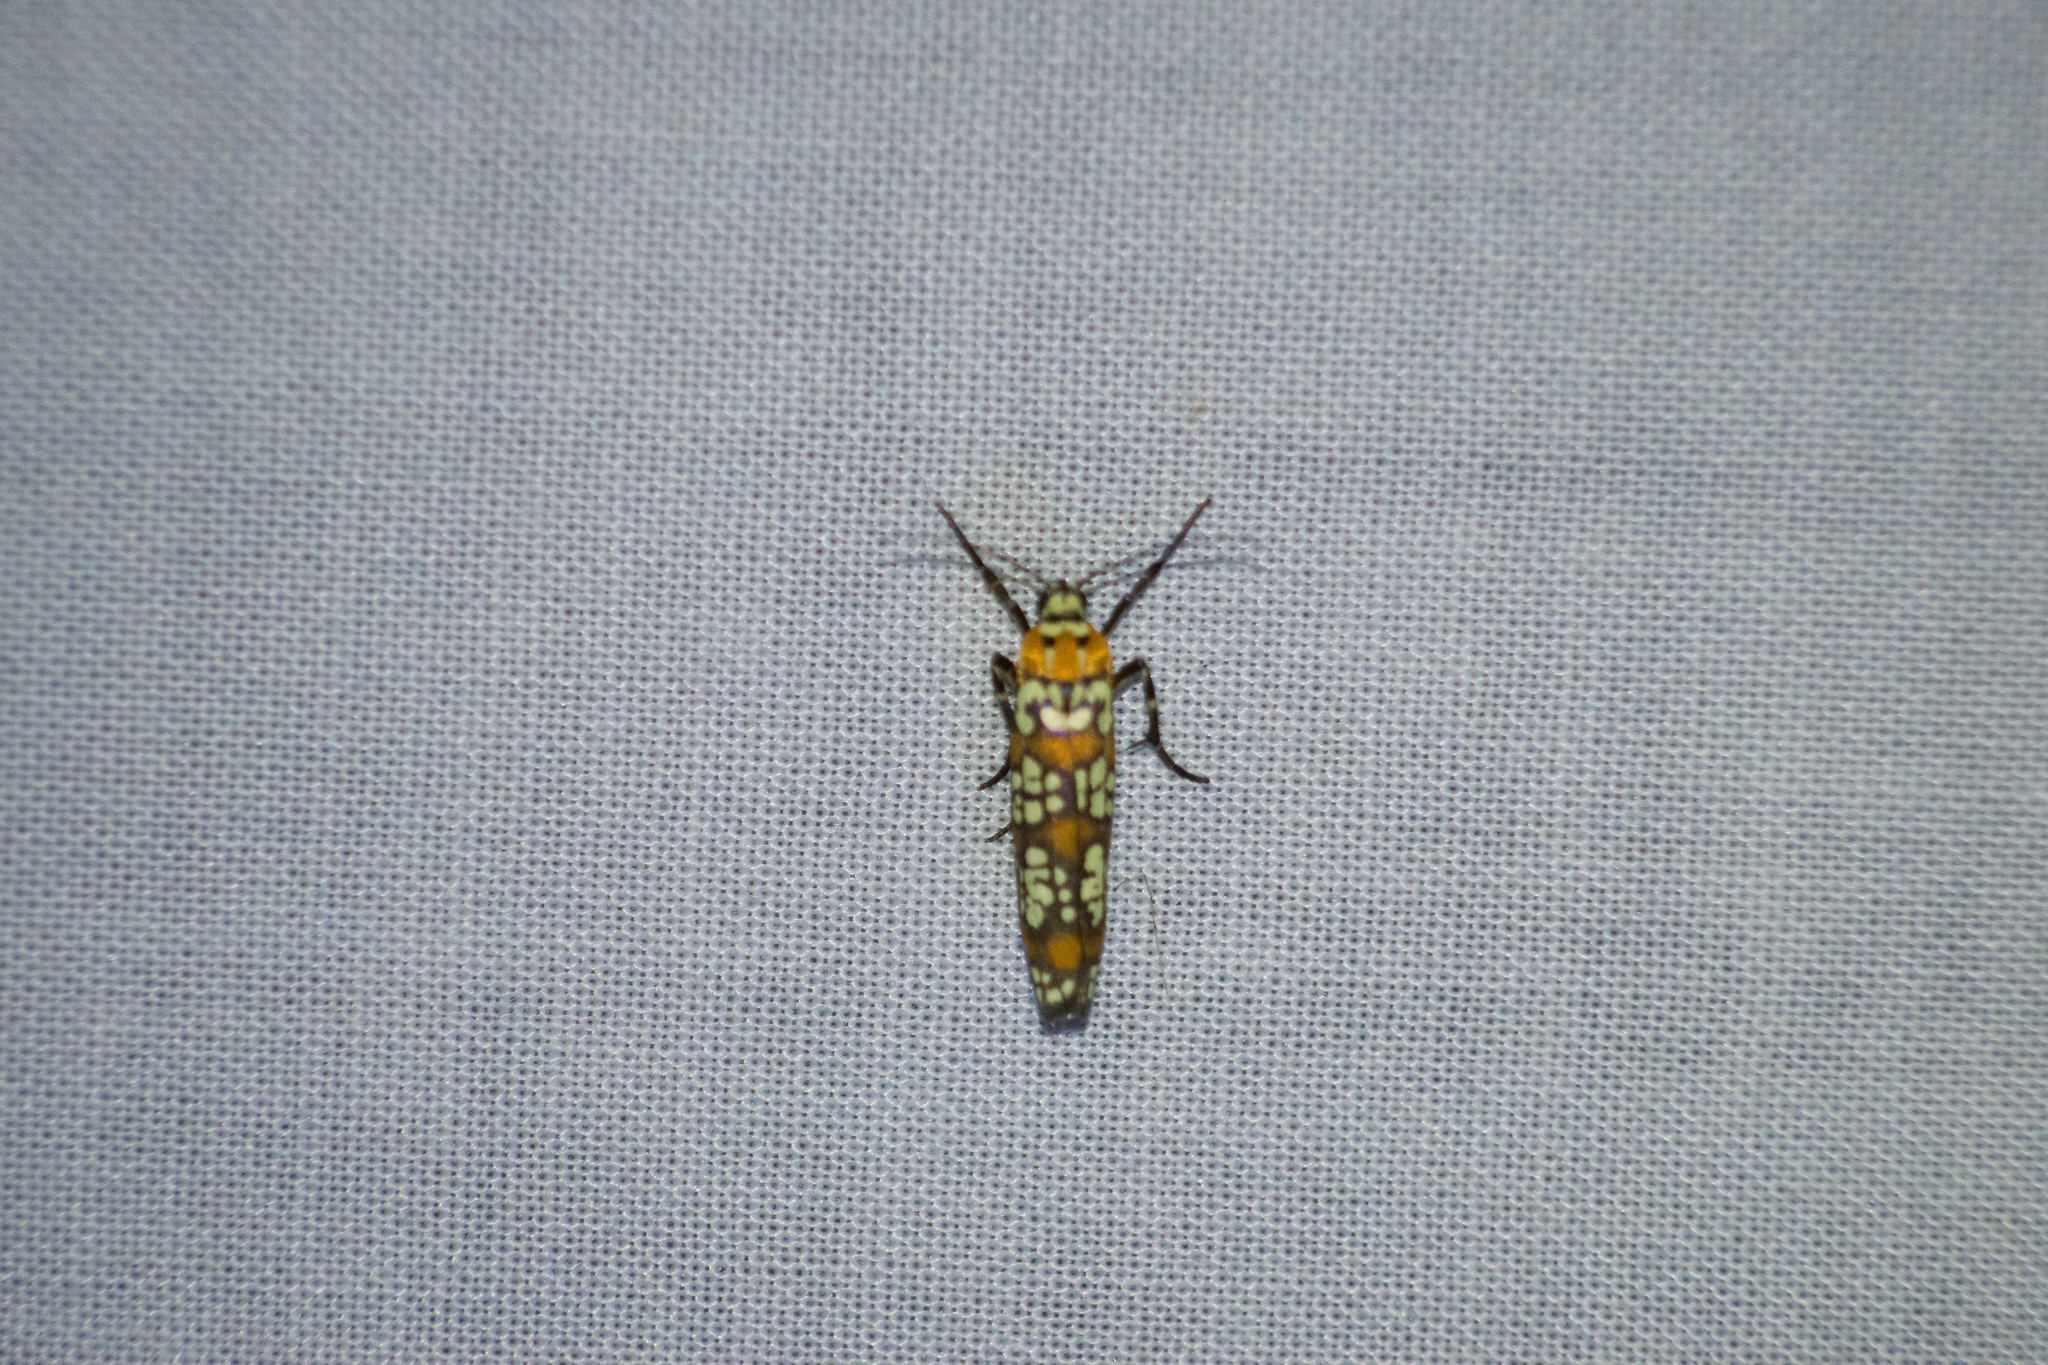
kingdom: Animalia
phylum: Arthropoda
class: Insecta
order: Lepidoptera
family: Attevidae
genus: Atteva
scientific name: Atteva punctella
